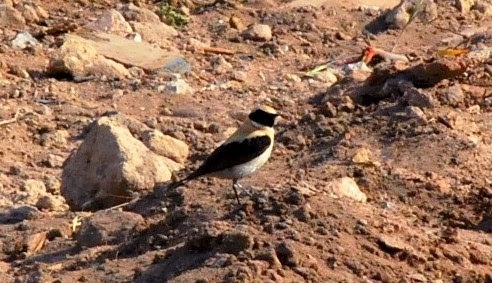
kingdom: Animalia
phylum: Chordata
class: Aves
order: Passeriformes
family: Muscicapidae
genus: Oenanthe
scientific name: Oenanthe hispanica
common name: Black-eared wheatear
